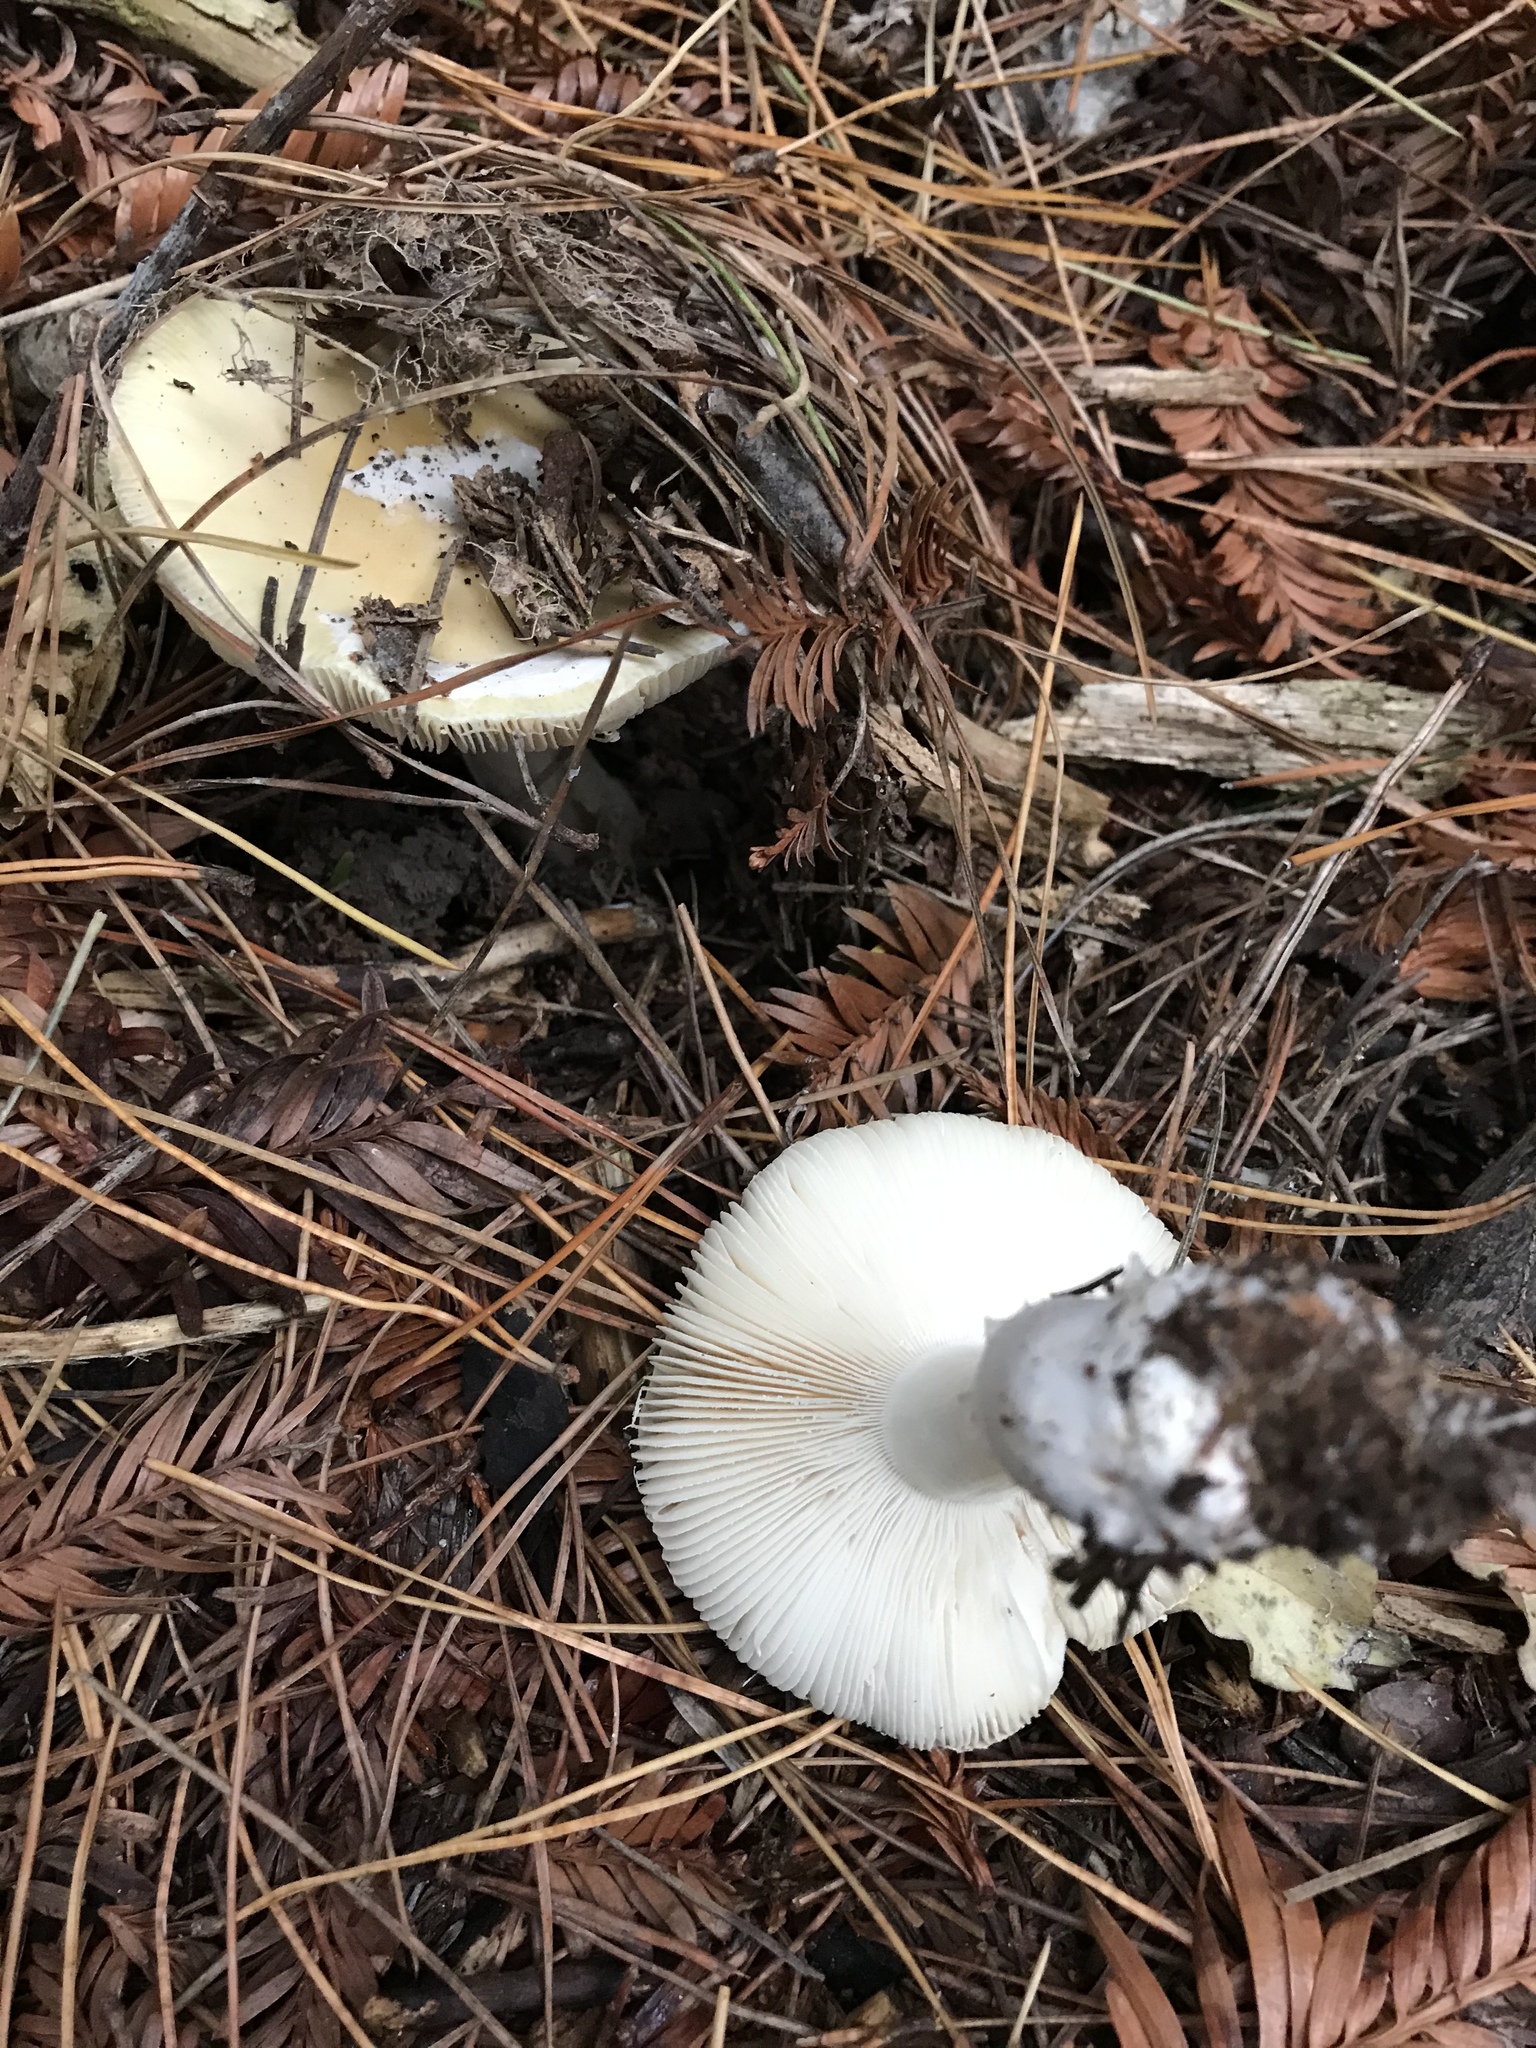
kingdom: Fungi
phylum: Basidiomycota
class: Agaricomycetes
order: Agaricales
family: Amanitaceae
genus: Amanita
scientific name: Amanita gemmata
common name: Jewelled amanita
